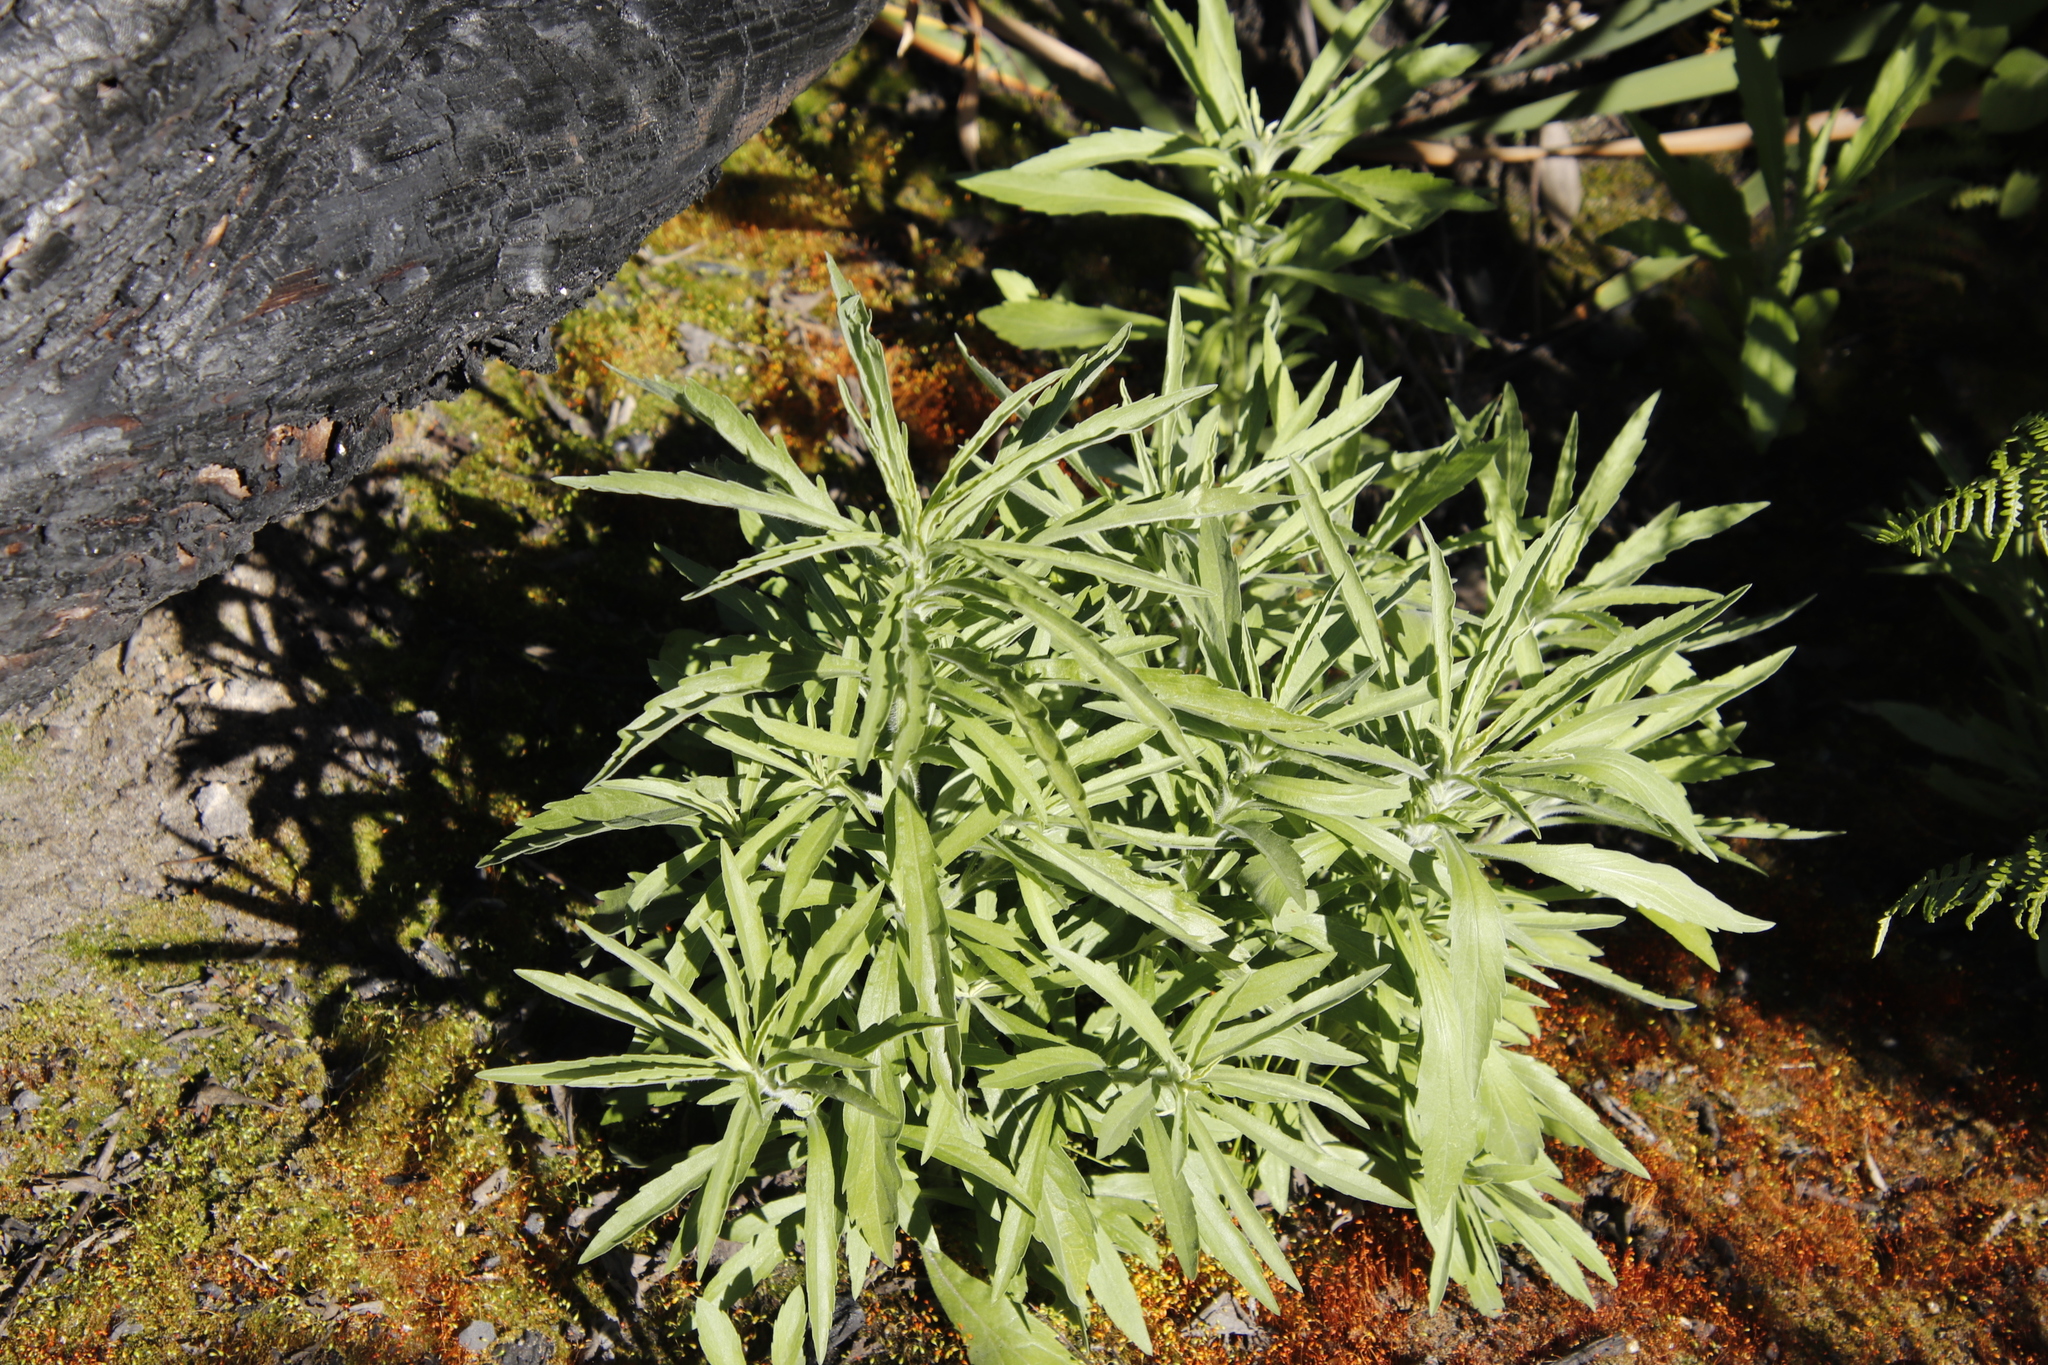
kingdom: Plantae
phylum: Tracheophyta
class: Magnoliopsida
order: Asterales
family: Asteraceae
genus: Senecio
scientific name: Senecio pterophorus
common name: Shoddy ragwort
